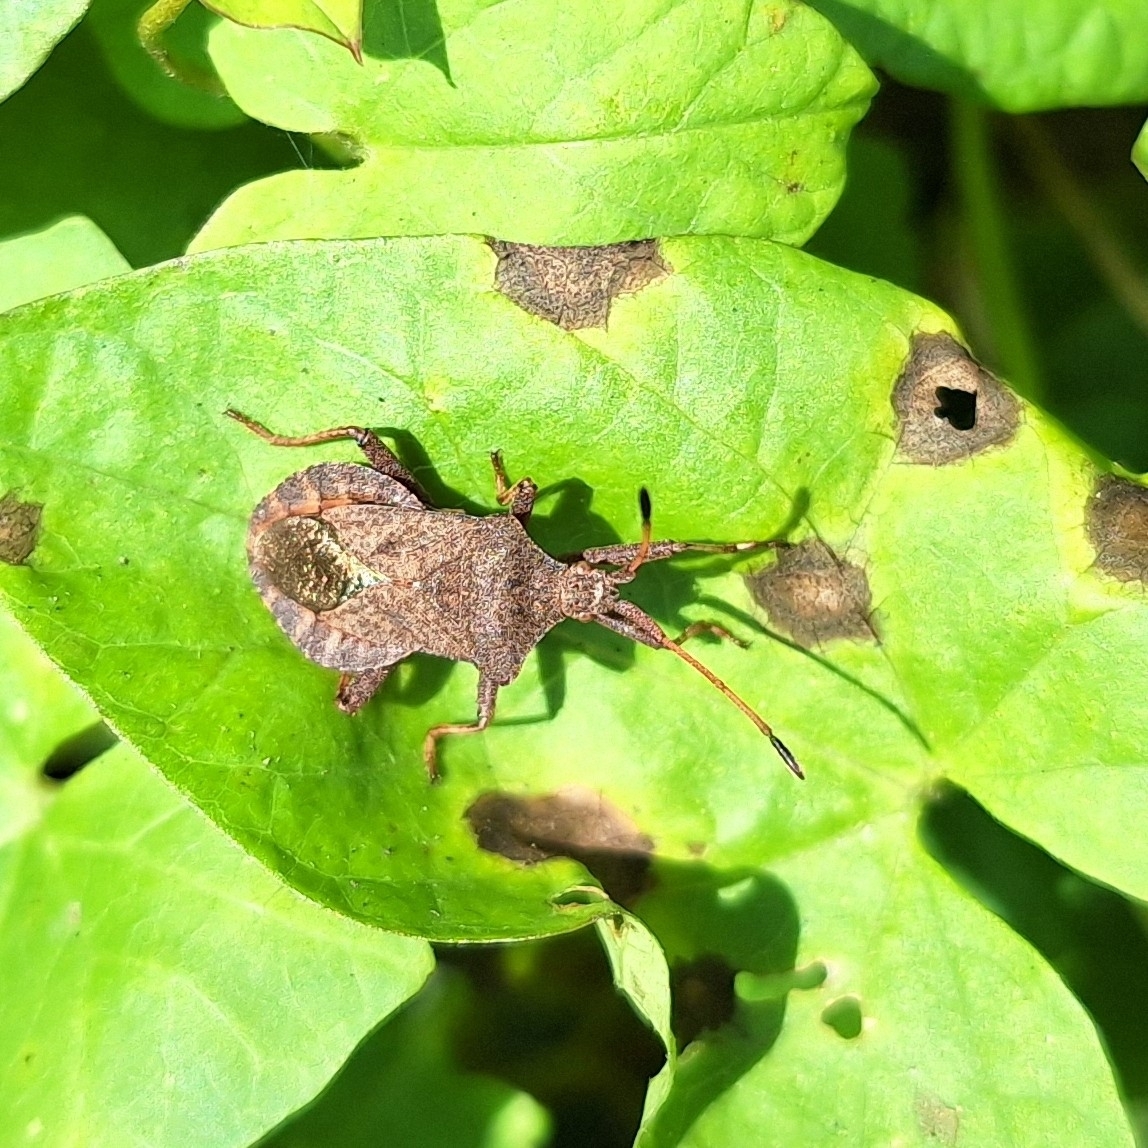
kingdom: Animalia
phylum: Arthropoda
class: Insecta
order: Hemiptera
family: Coreidae
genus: Coreus
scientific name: Coreus marginatus
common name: Dock bug
